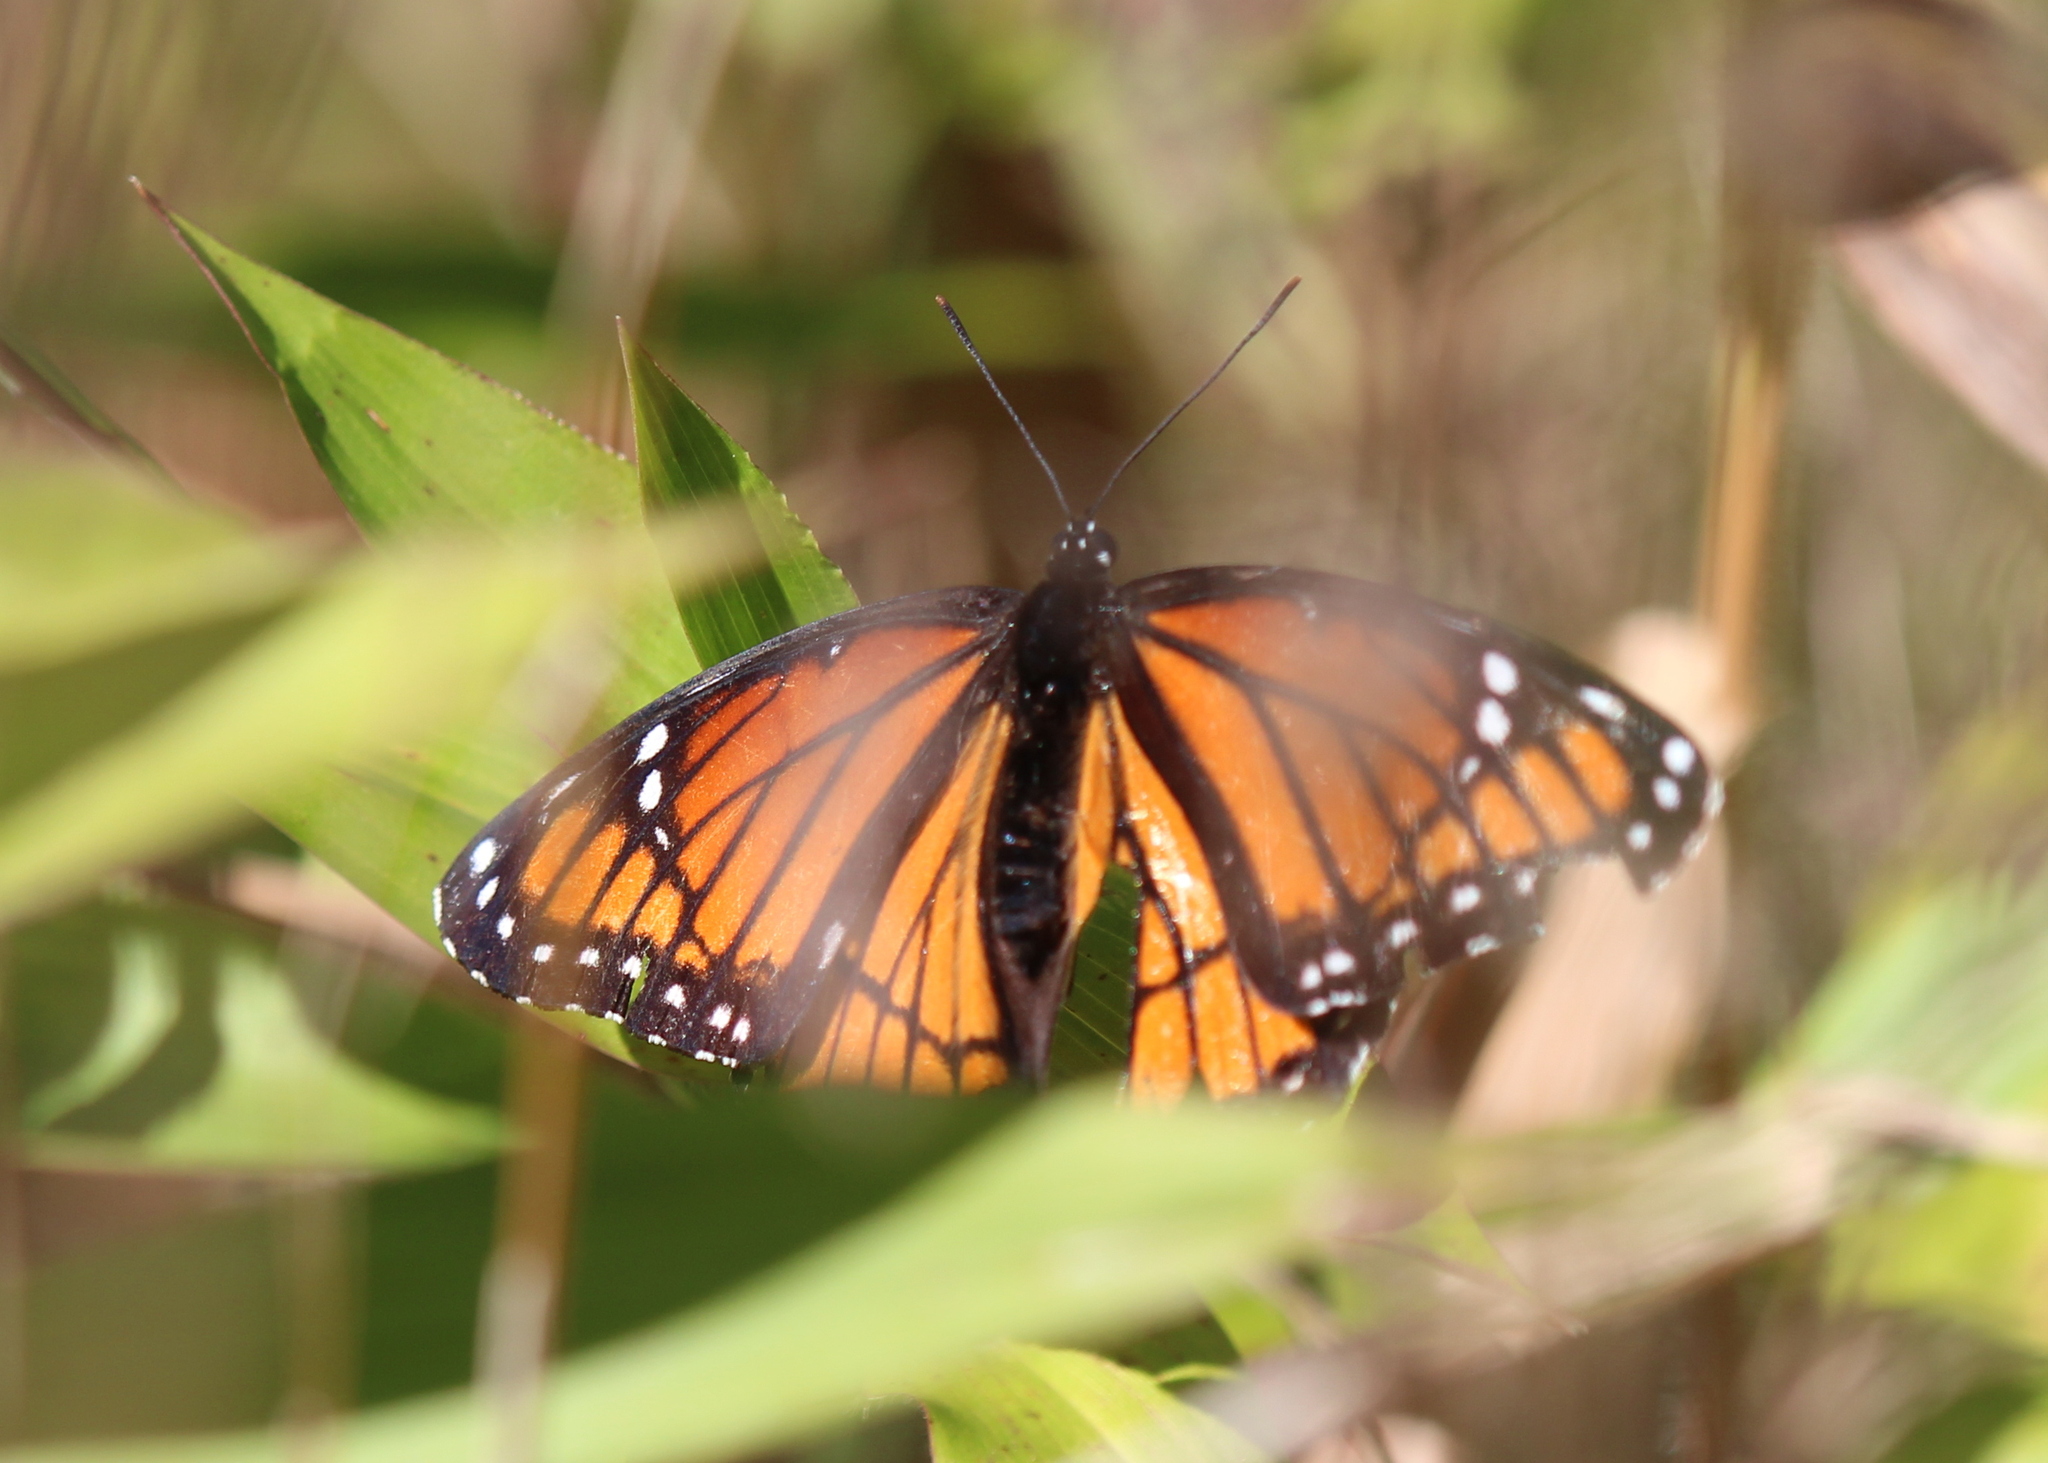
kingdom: Animalia
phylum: Arthropoda
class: Insecta
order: Lepidoptera
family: Nymphalidae
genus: Limenitis
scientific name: Limenitis archippus
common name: Viceroy
